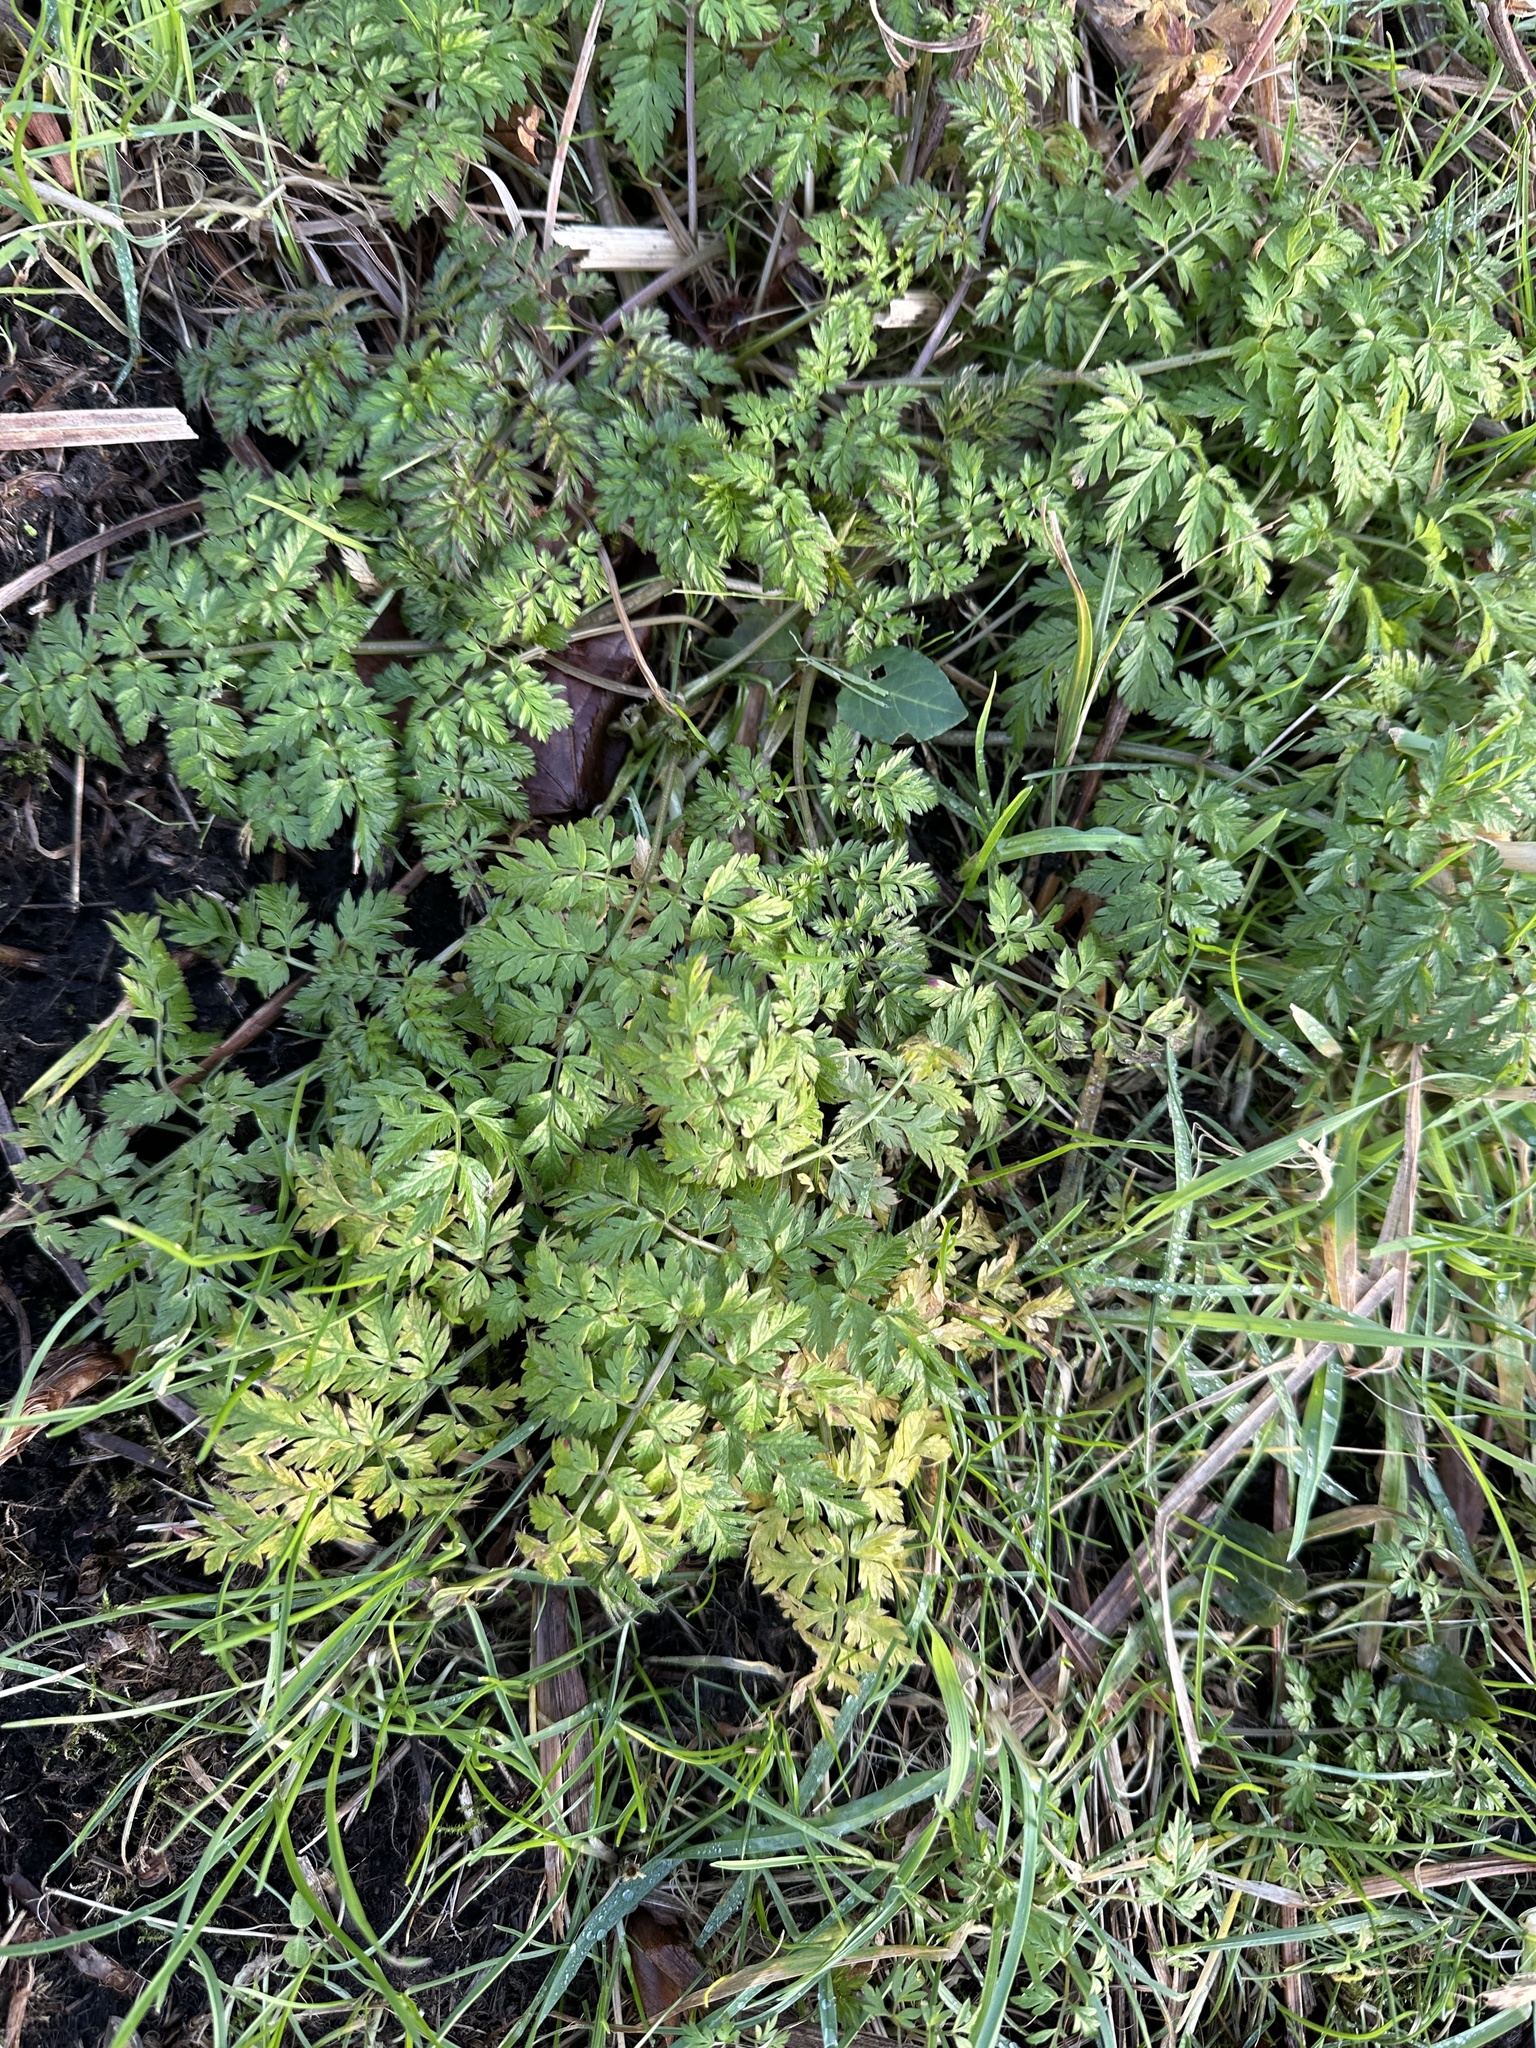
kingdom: Plantae
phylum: Tracheophyta
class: Magnoliopsida
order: Apiales
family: Apiaceae
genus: Anthriscus
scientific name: Anthriscus sylvestris
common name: Cow parsley
